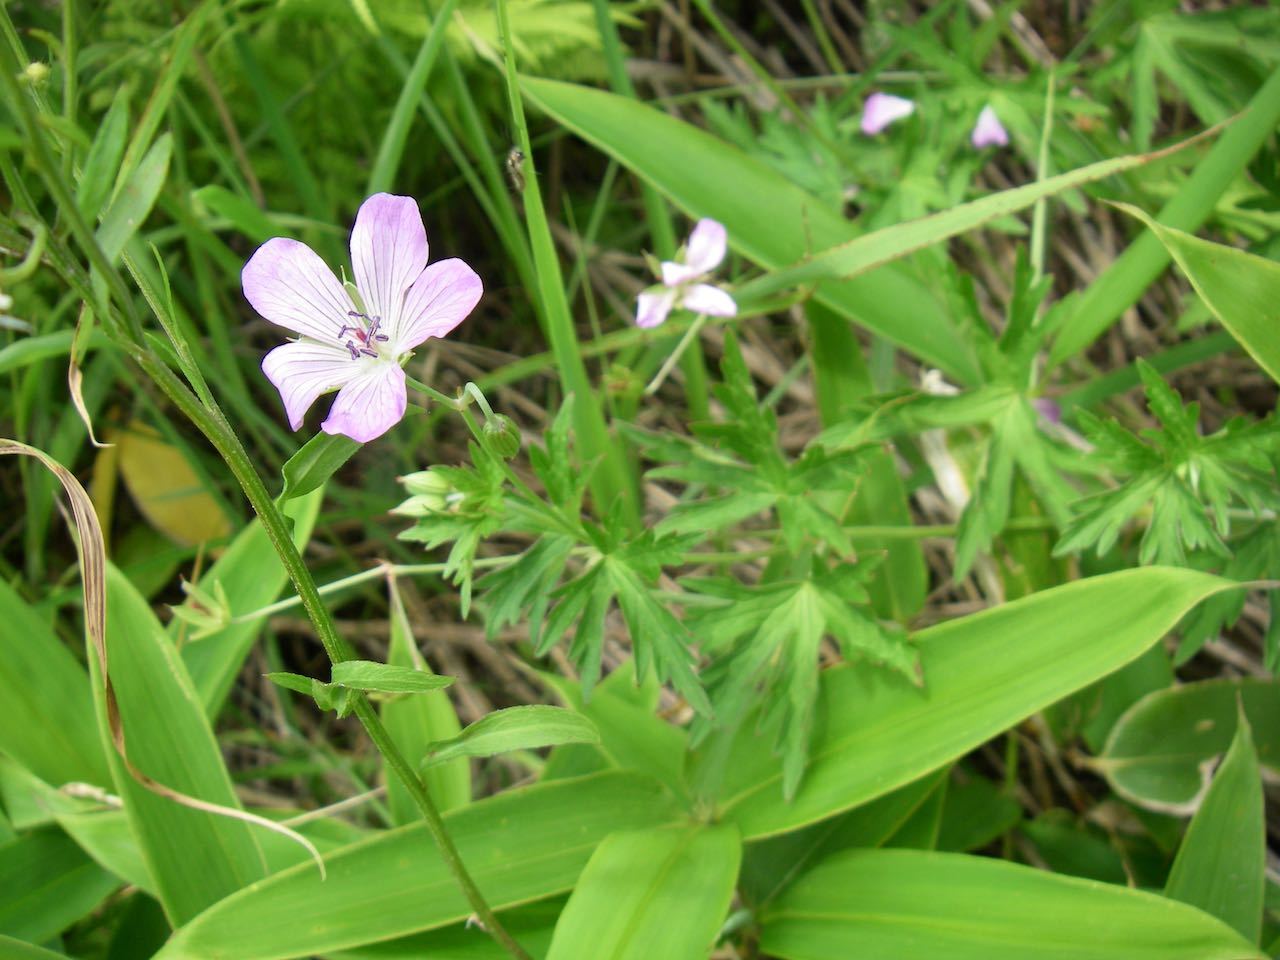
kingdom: Plantae
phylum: Tracheophyta
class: Magnoliopsida
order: Geraniales
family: Geraniaceae
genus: Geranium
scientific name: Geranium yesoense
